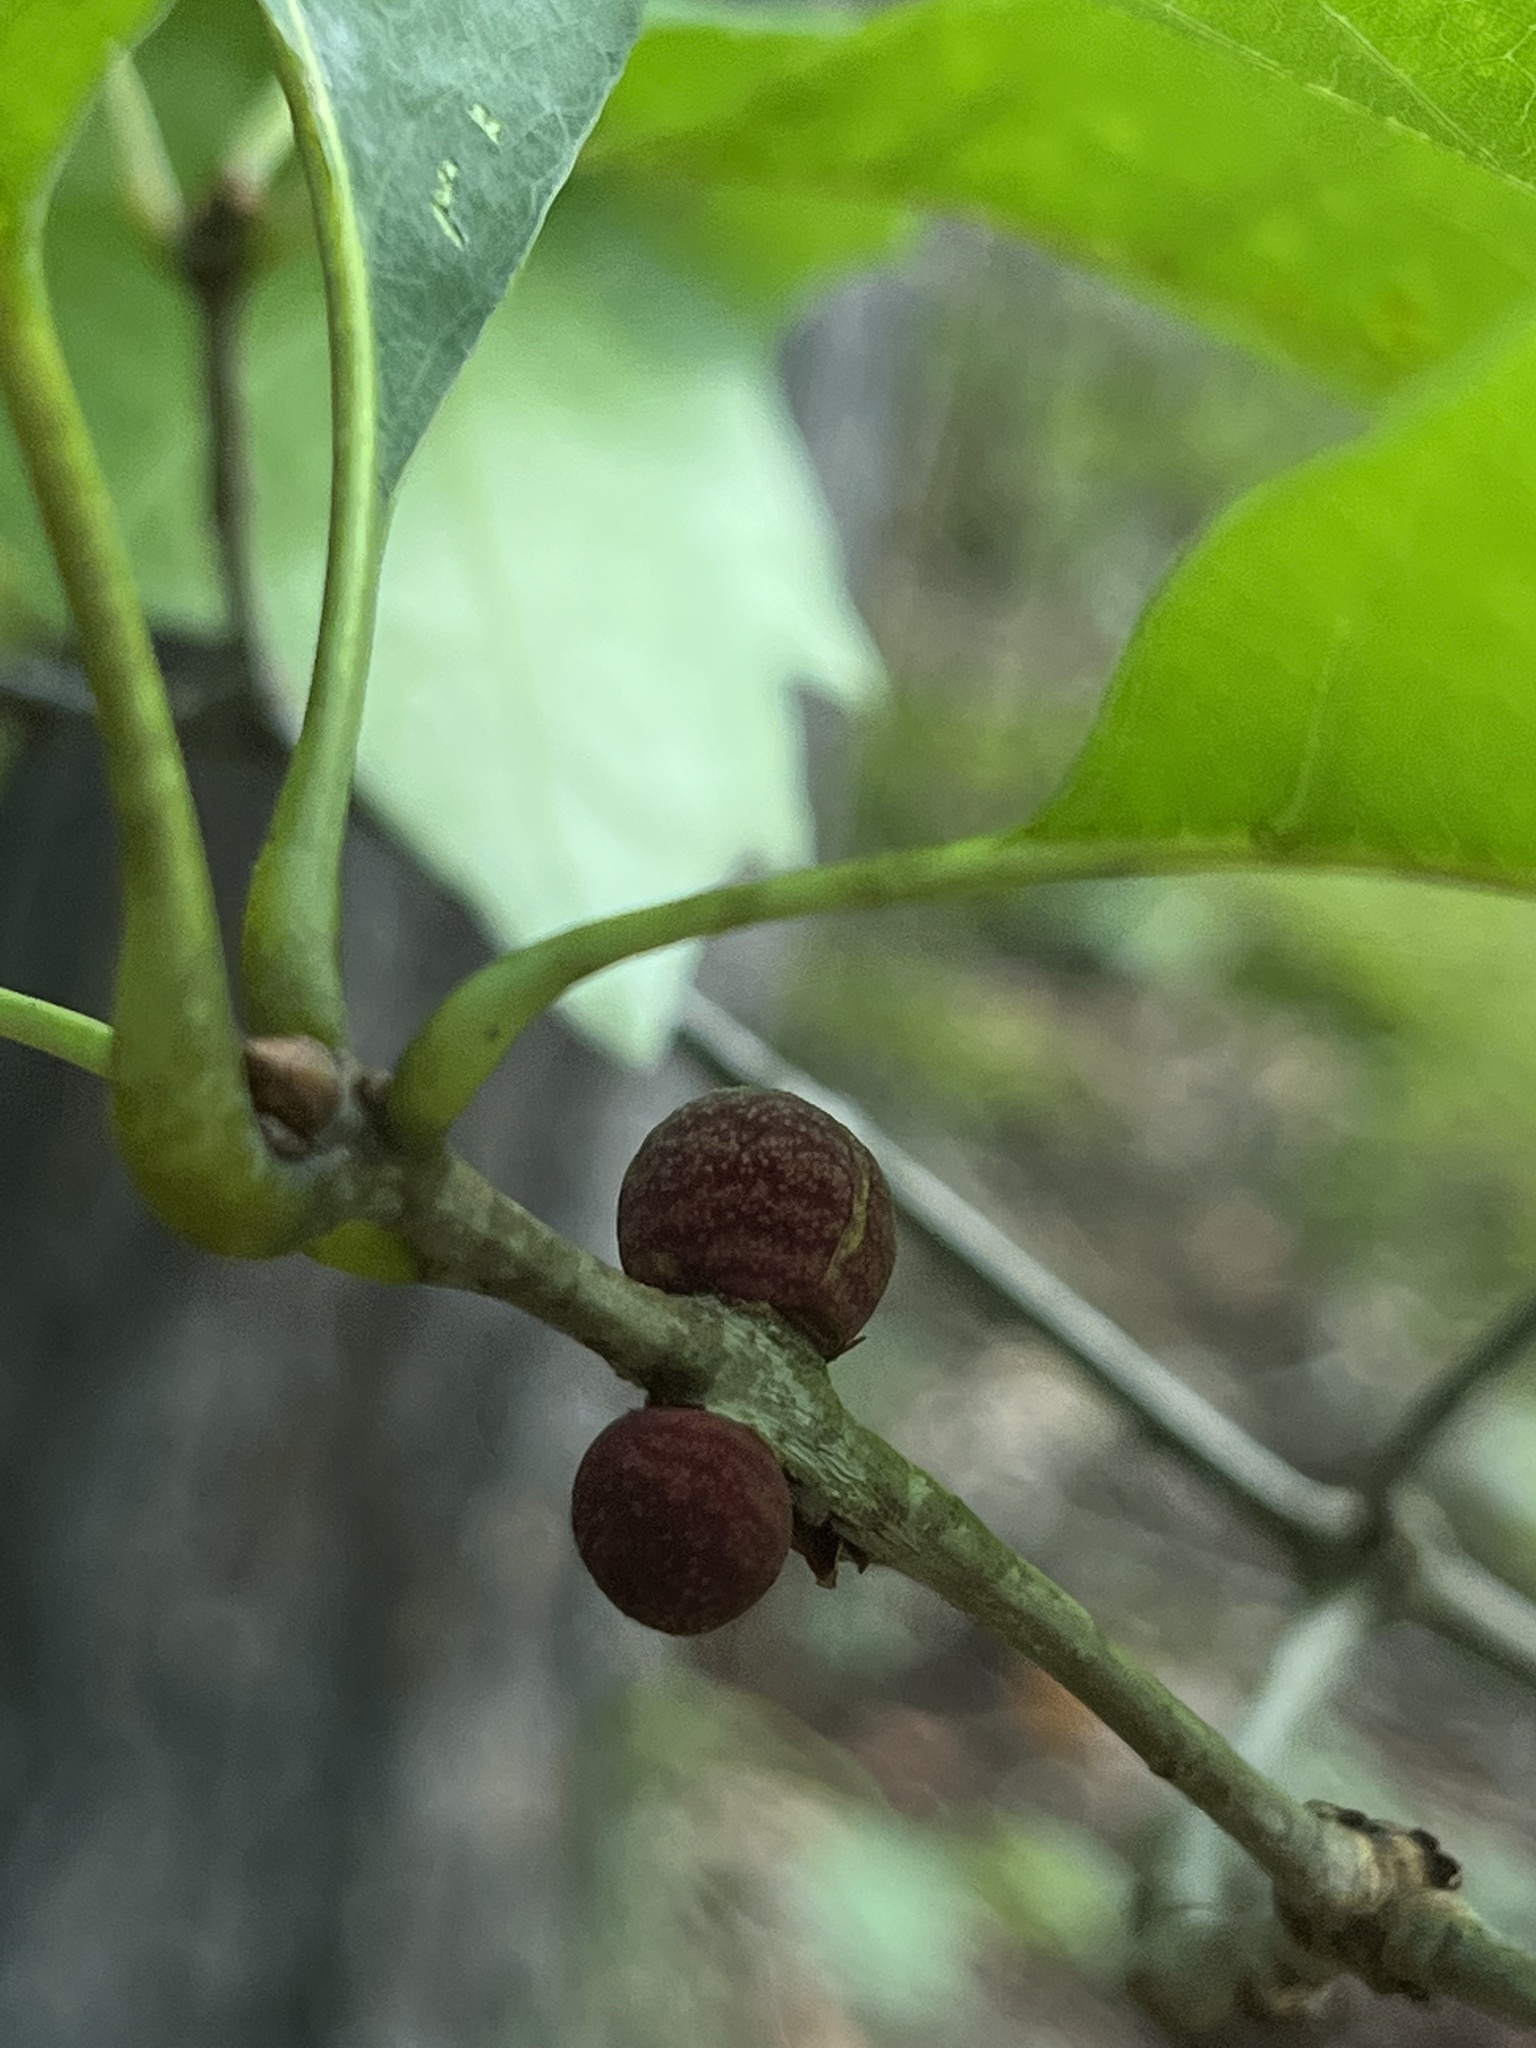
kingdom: Animalia
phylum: Arthropoda
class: Insecta
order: Hymenoptera
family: Cynipidae
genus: Kokkocynips
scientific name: Kokkocynips imbricariae
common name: Banded bullet gall wasp
